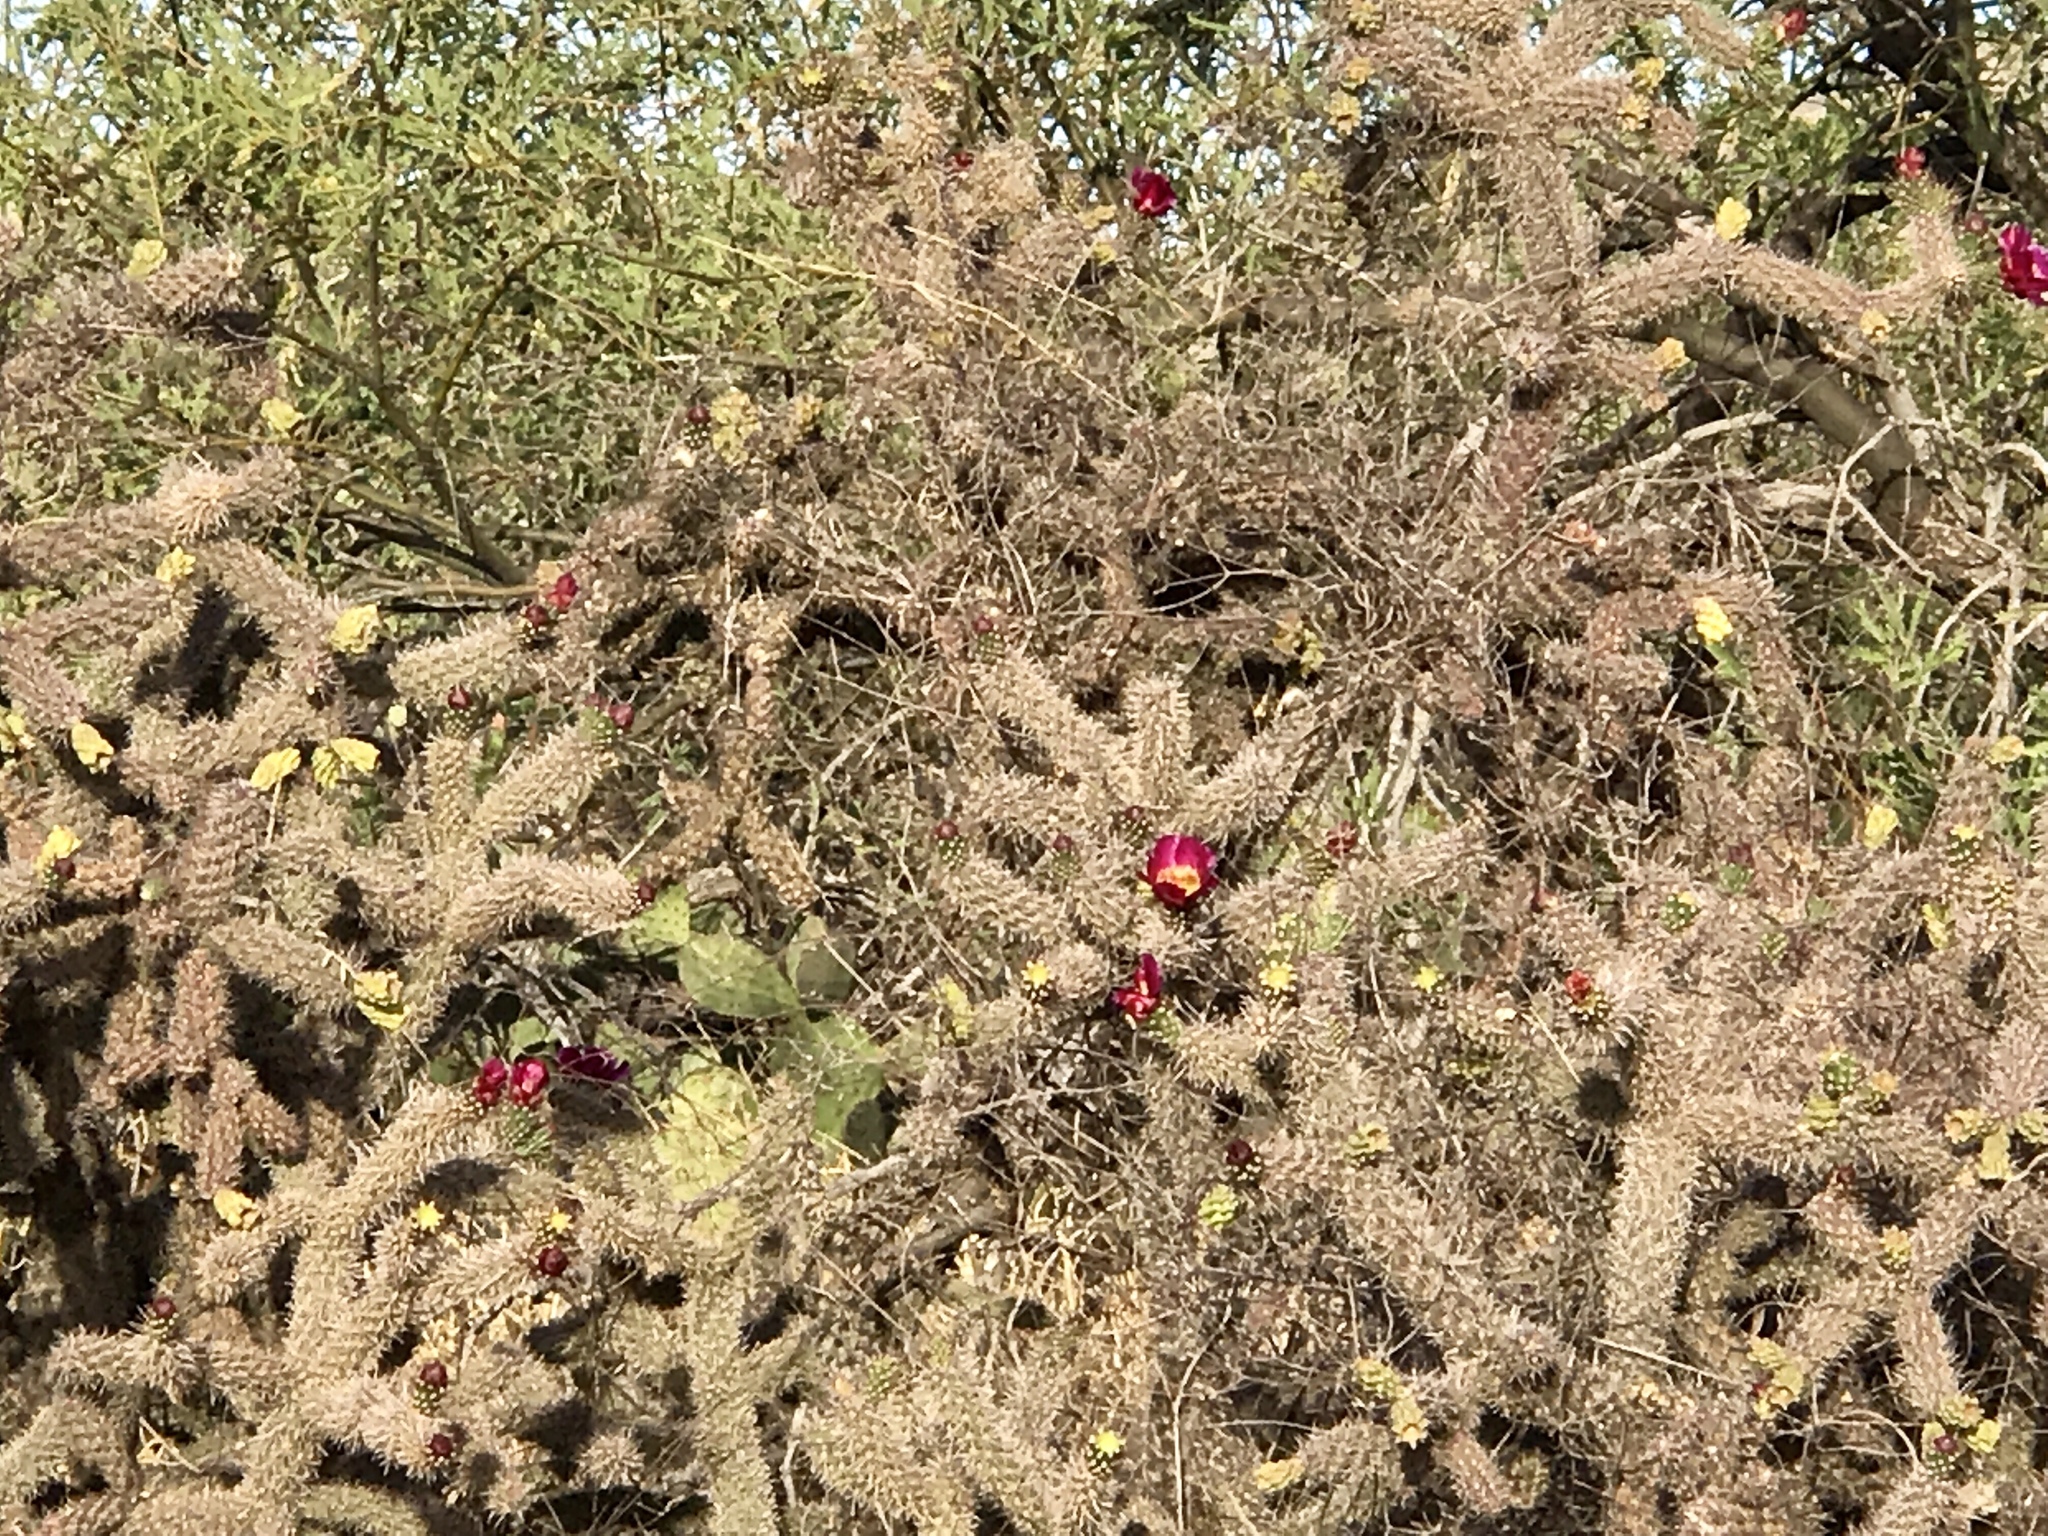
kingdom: Plantae
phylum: Tracheophyta
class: Magnoliopsida
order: Caryophyllales
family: Cactaceae
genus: Cylindropuntia
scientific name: Cylindropuntia imbricata
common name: Candelabrum cactus
